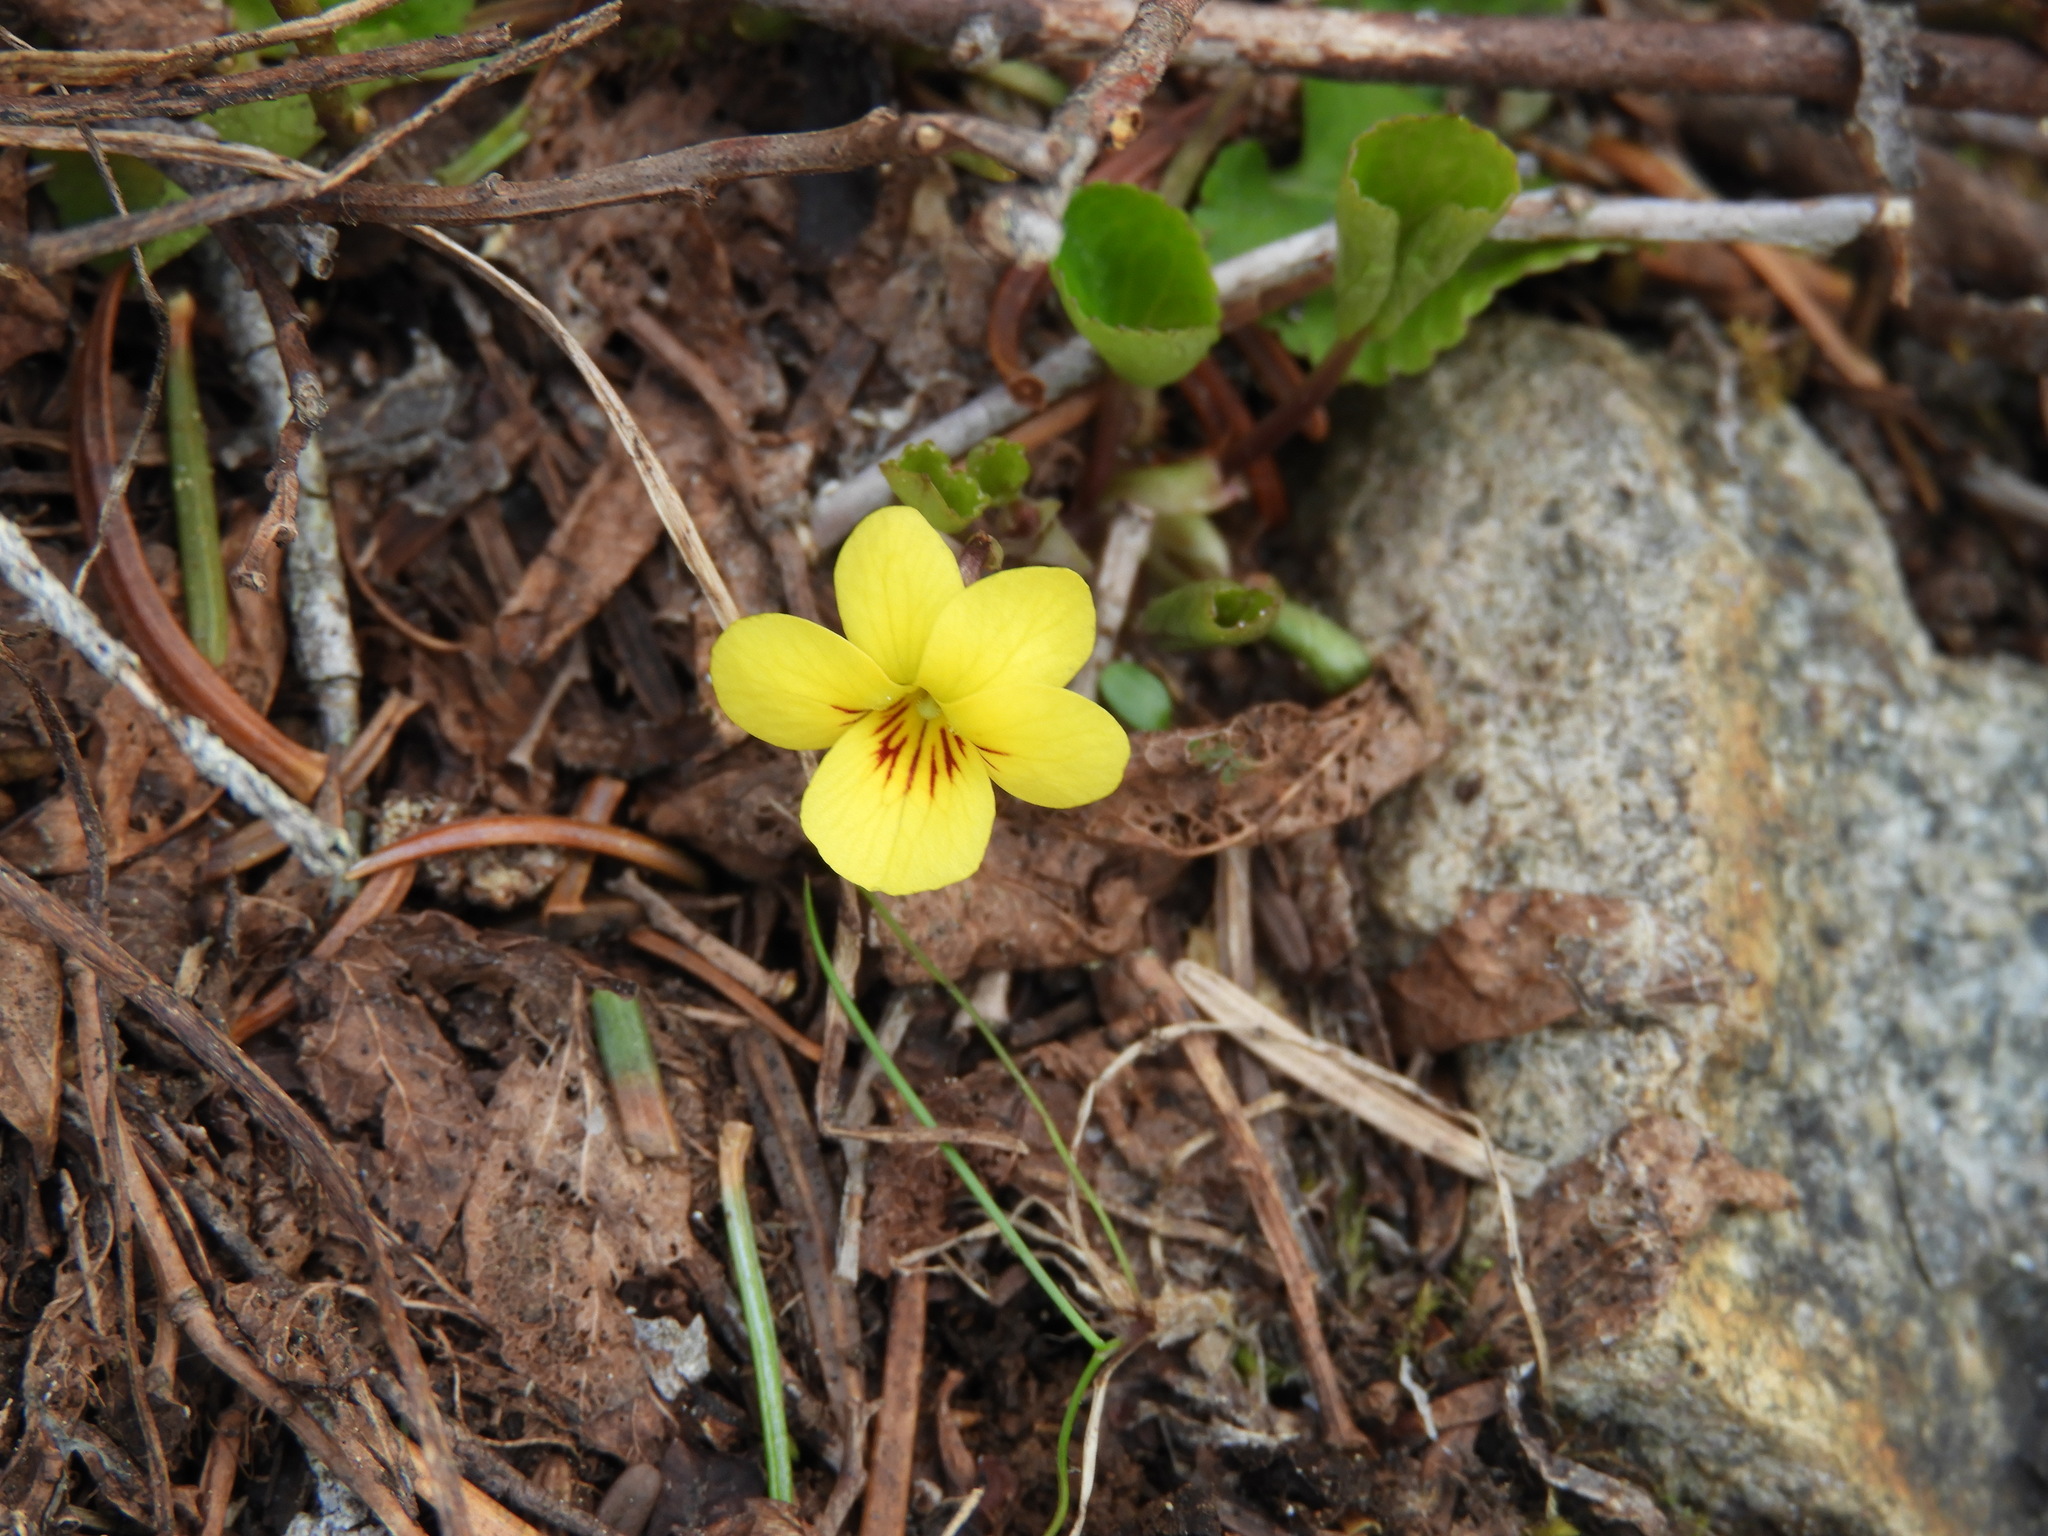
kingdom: Plantae
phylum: Tracheophyta
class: Magnoliopsida
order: Malpighiales
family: Violaceae
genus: Viola
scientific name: Viola sempervirens
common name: Evergreen violet
